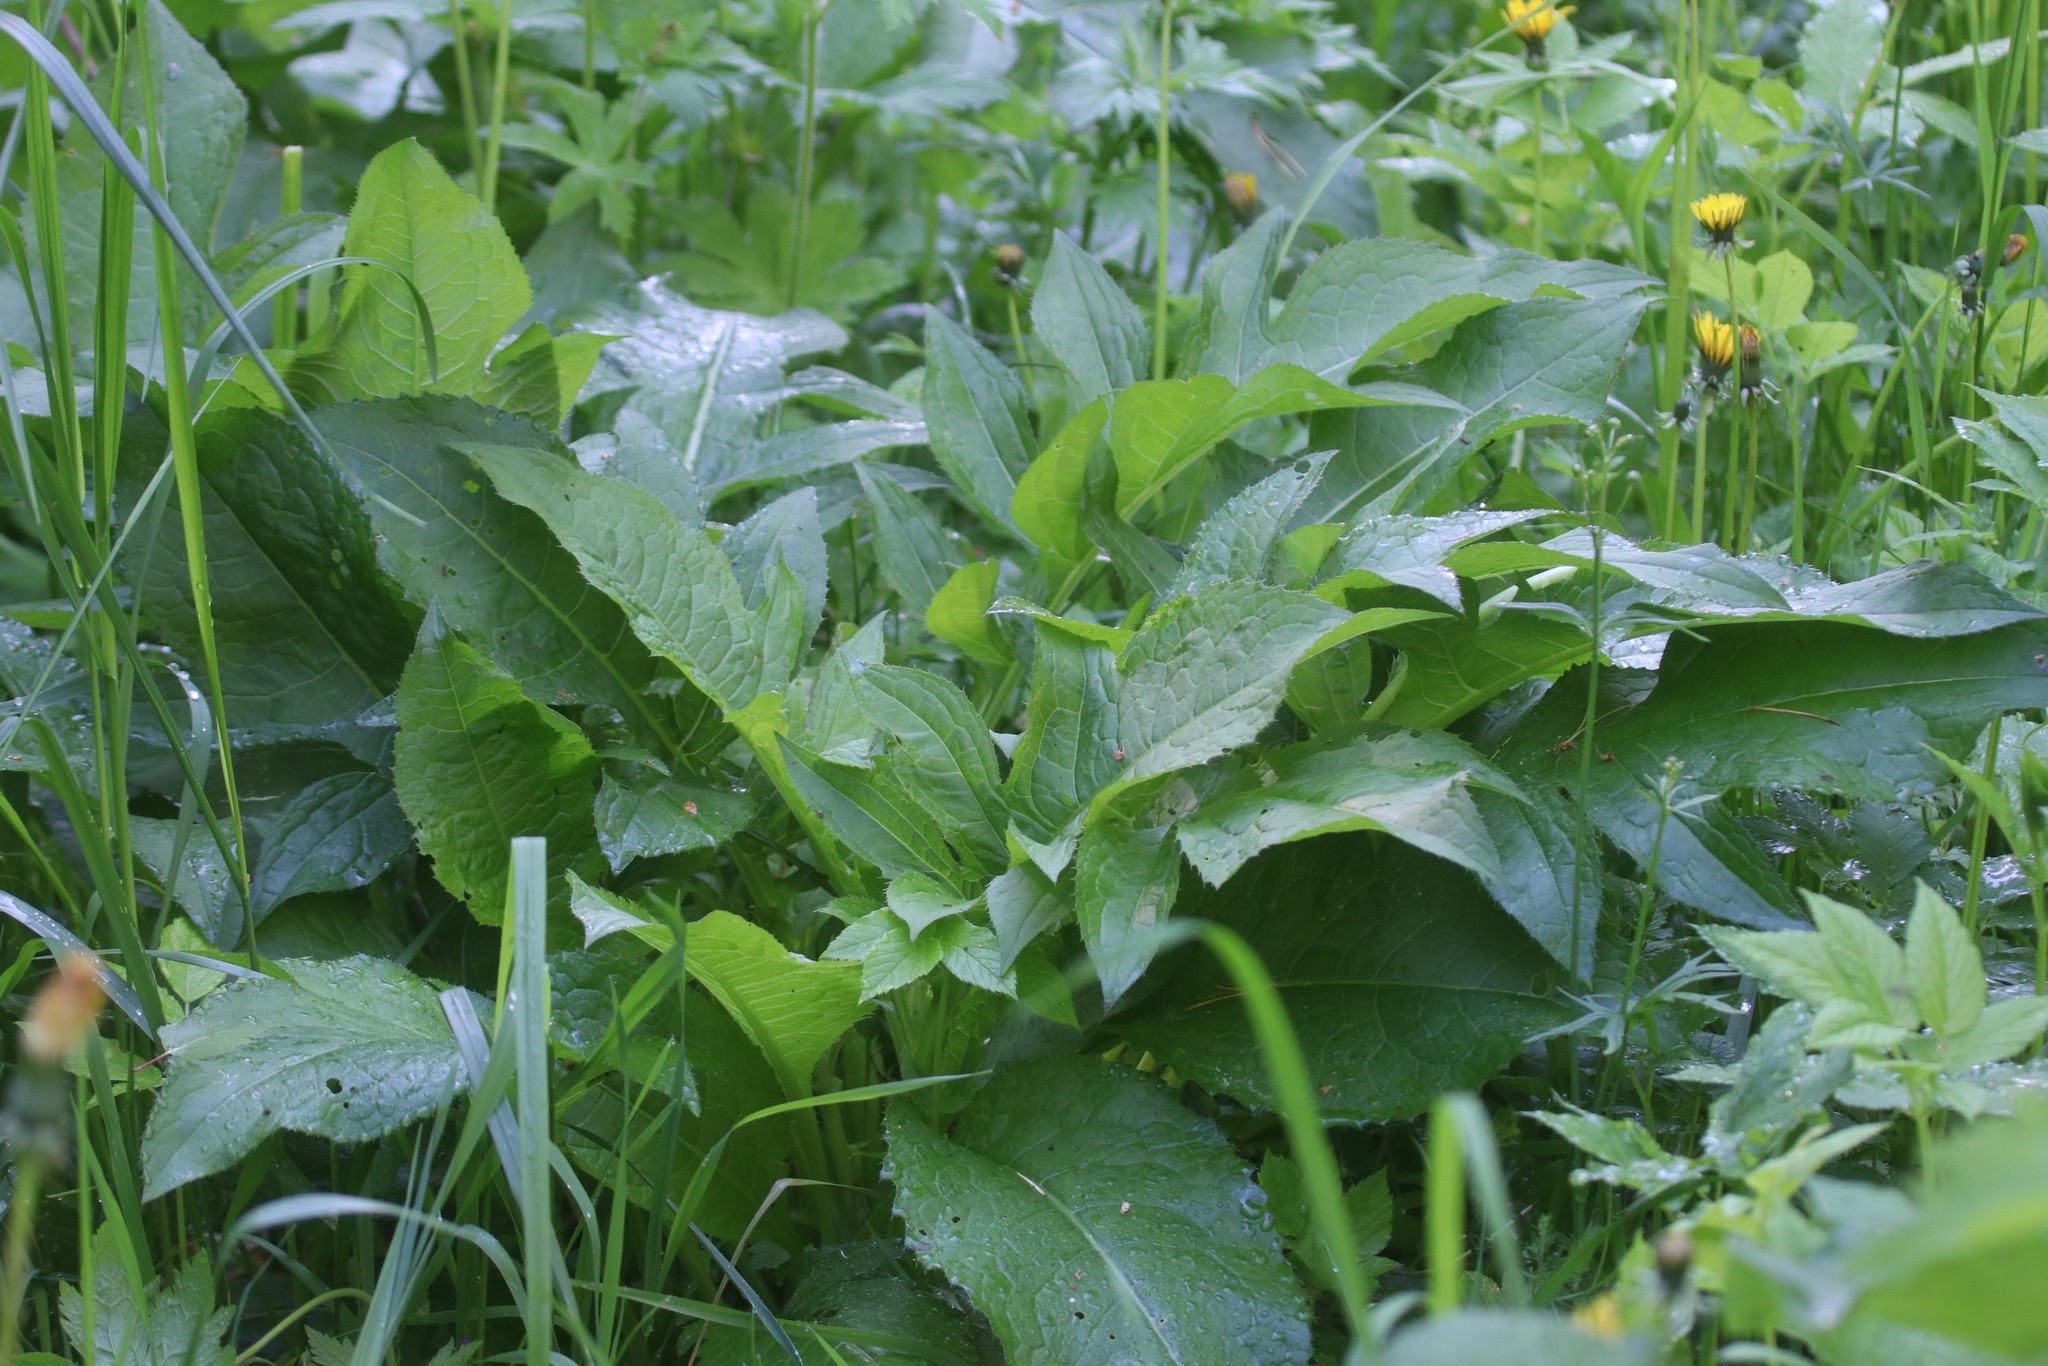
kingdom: Plantae
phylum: Tracheophyta
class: Magnoliopsida
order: Asterales
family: Asteraceae
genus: Cirsium
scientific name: Cirsium oleraceum
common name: Cabbage thistle
